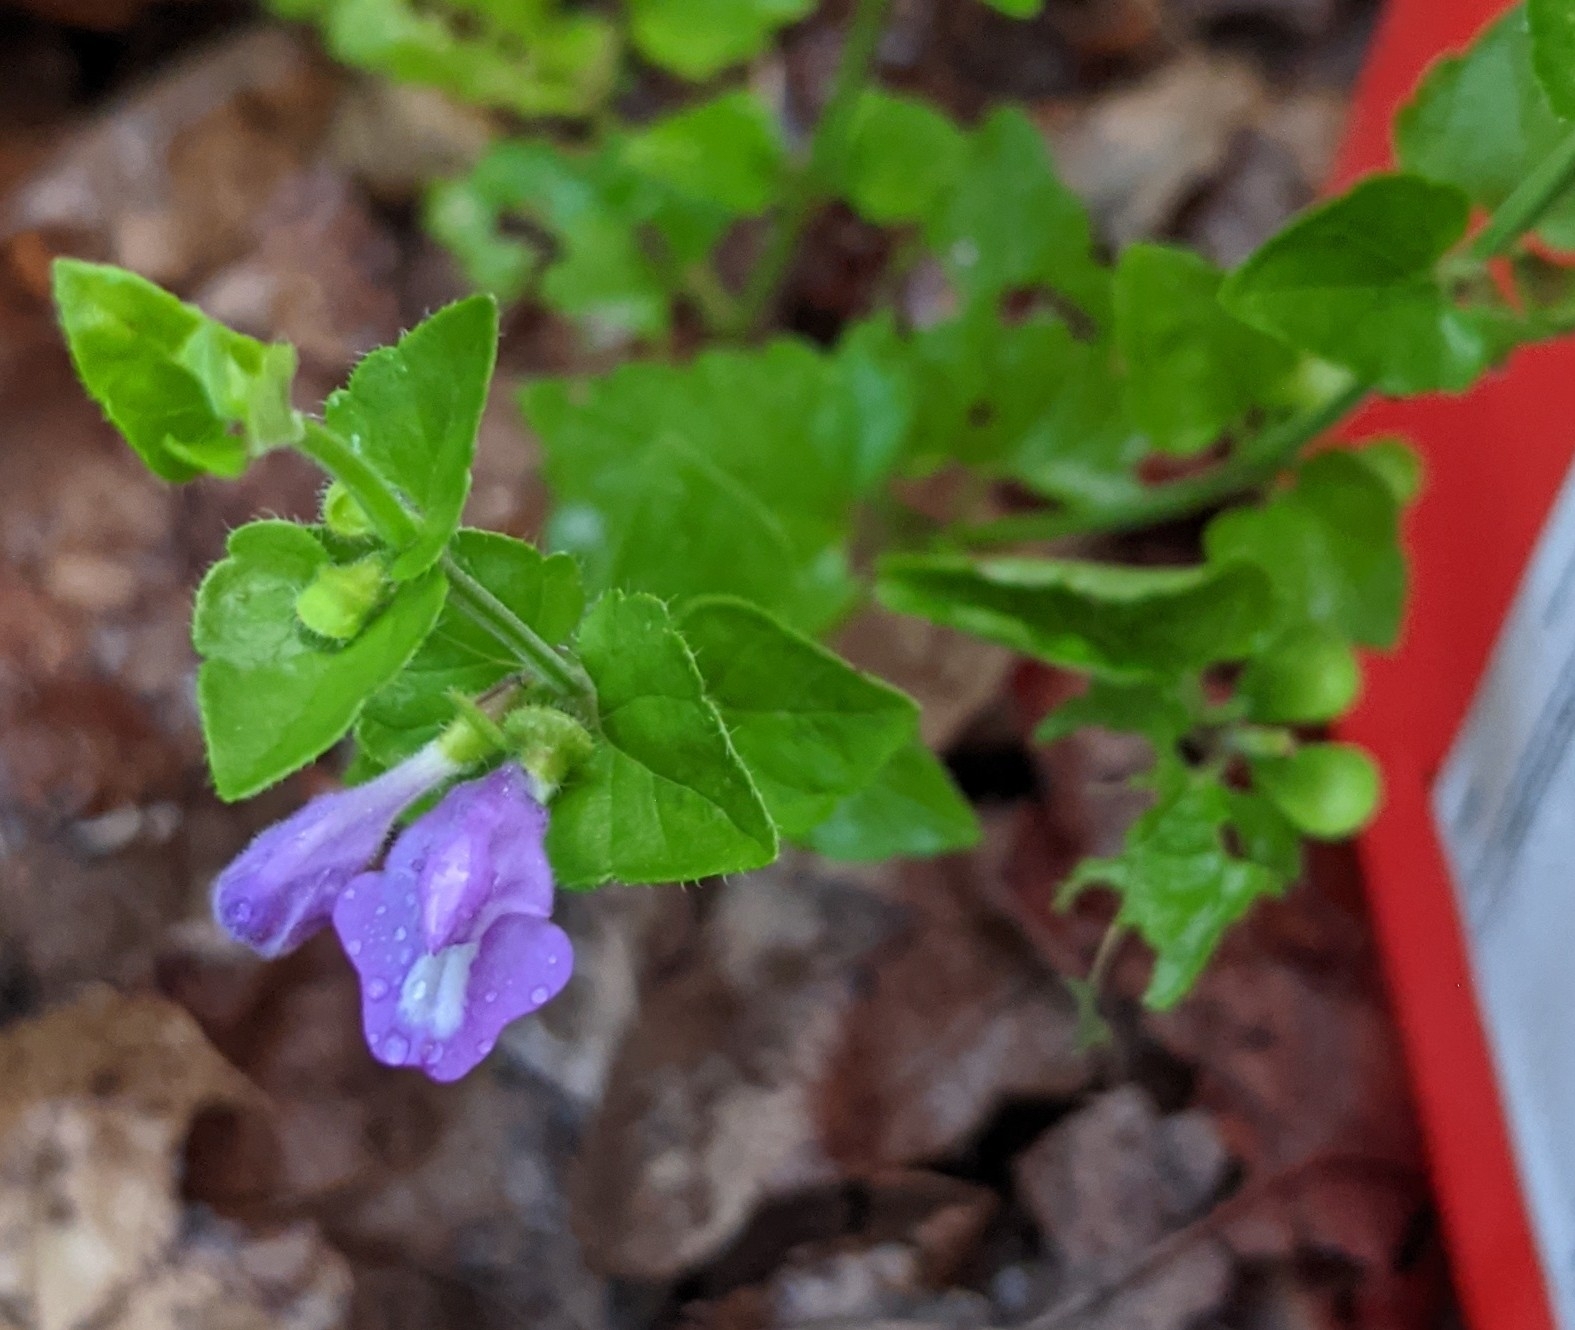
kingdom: Plantae
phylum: Tracheophyta
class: Magnoliopsida
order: Lamiales
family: Lamiaceae
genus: Scutellaria
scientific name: Scutellaria cardiophylla
